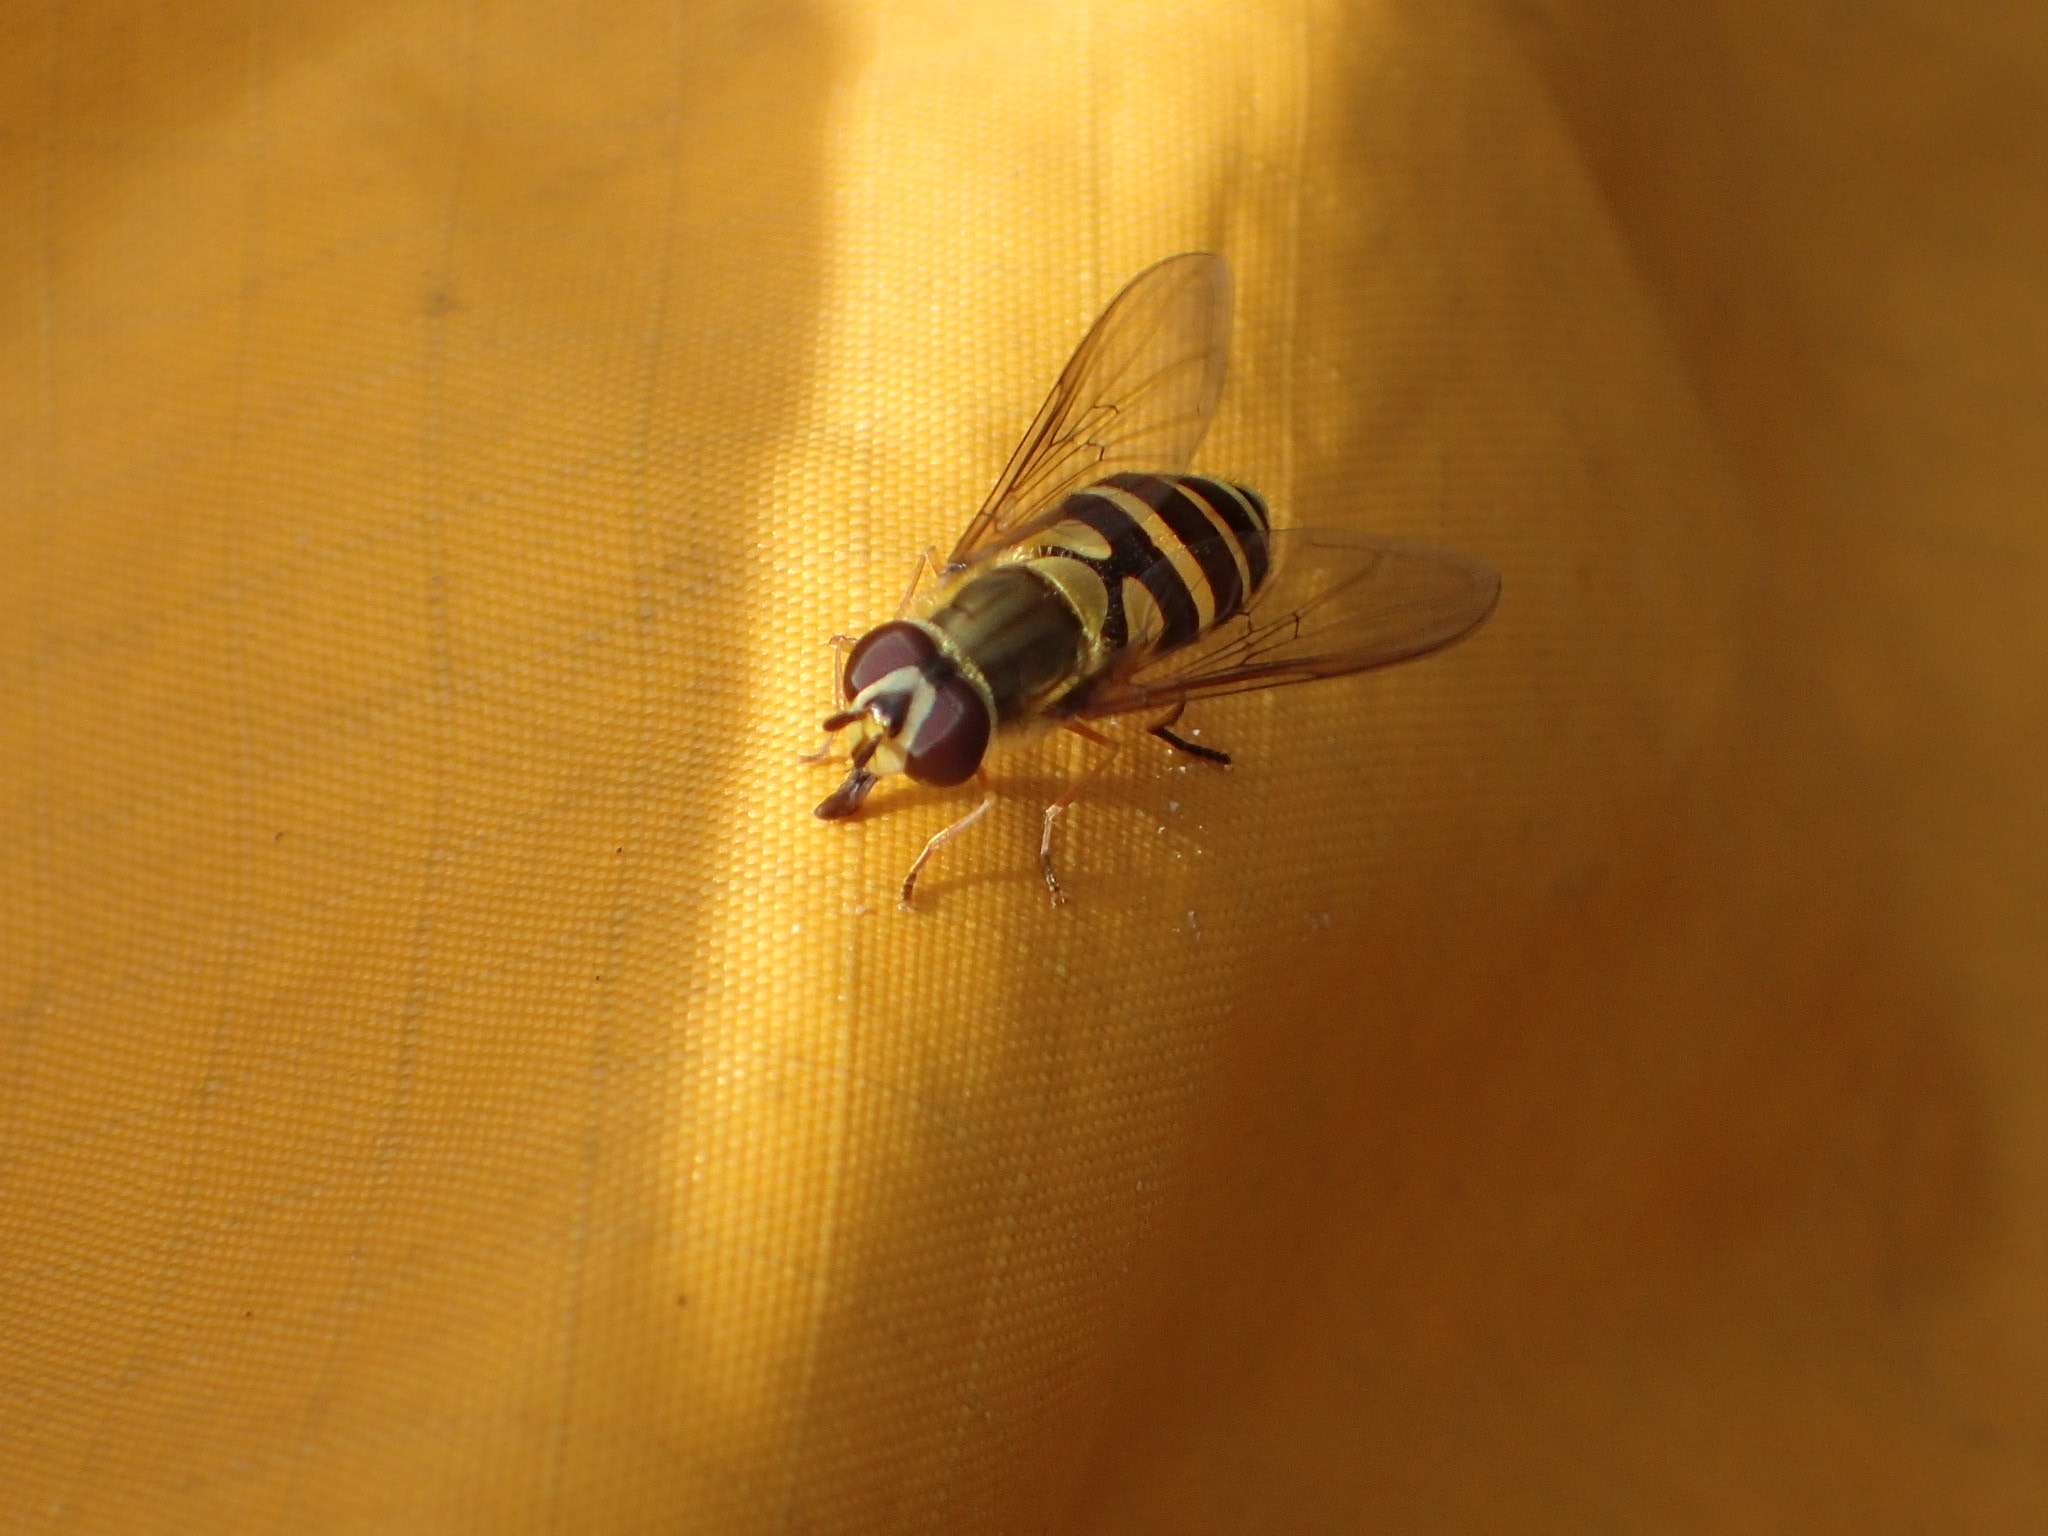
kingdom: Animalia
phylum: Arthropoda
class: Insecta
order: Diptera
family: Syrphidae
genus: Syrphus
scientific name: Syrphus
